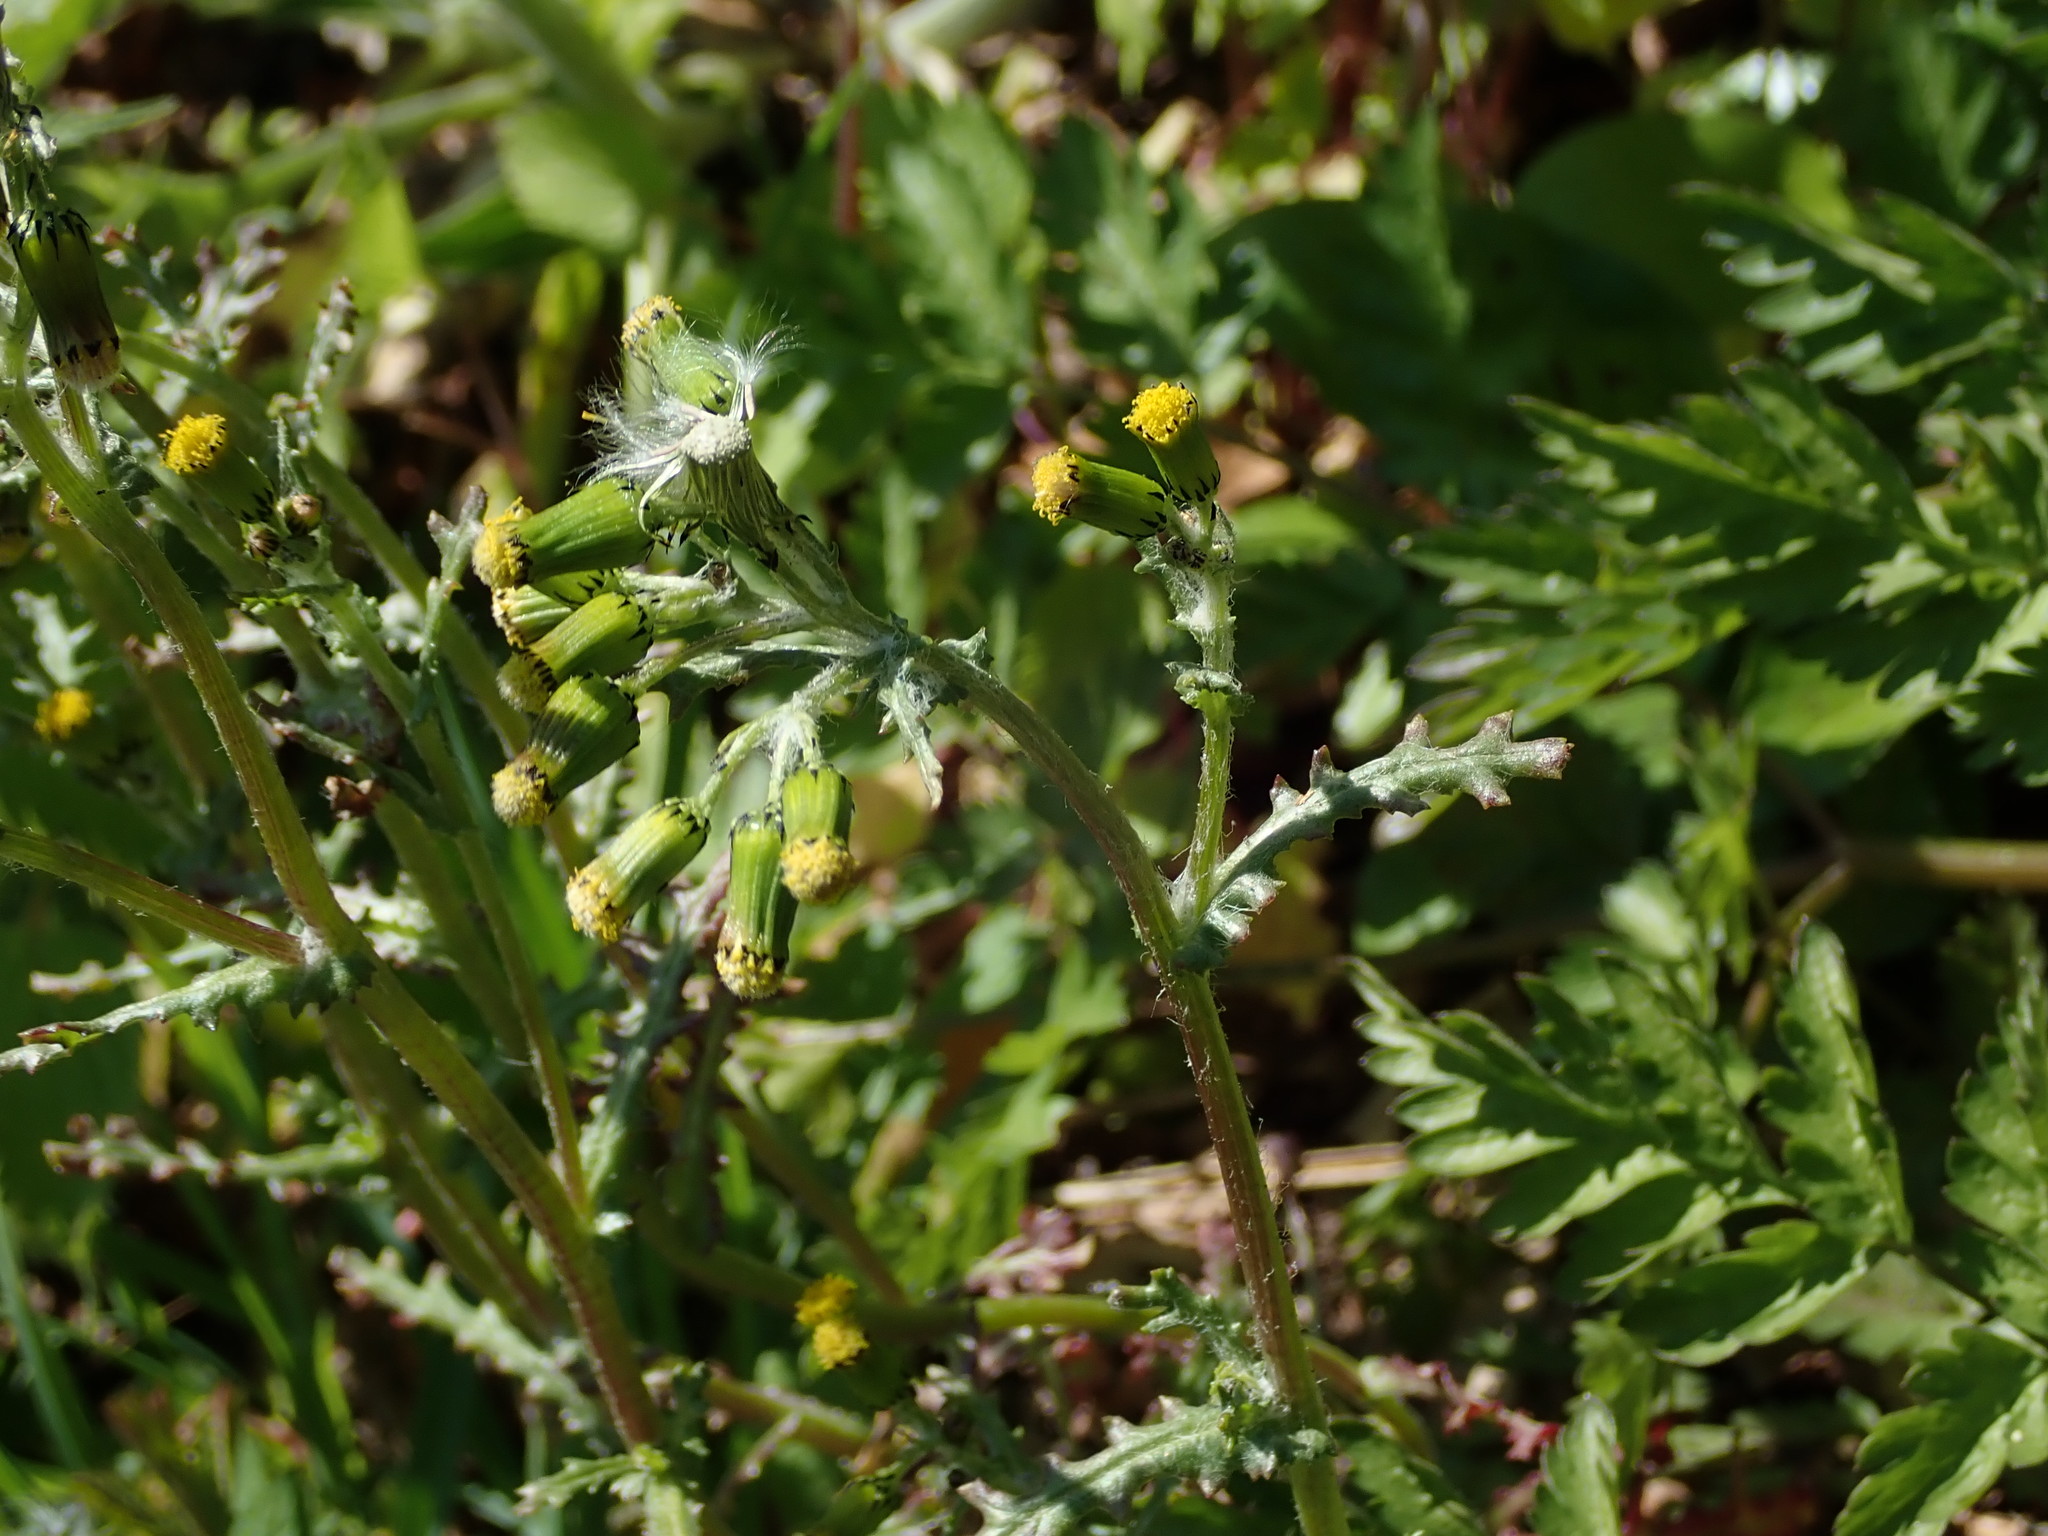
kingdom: Plantae
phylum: Tracheophyta
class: Magnoliopsida
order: Asterales
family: Asteraceae
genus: Senecio
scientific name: Senecio vulgaris
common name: Old-man-in-the-spring
